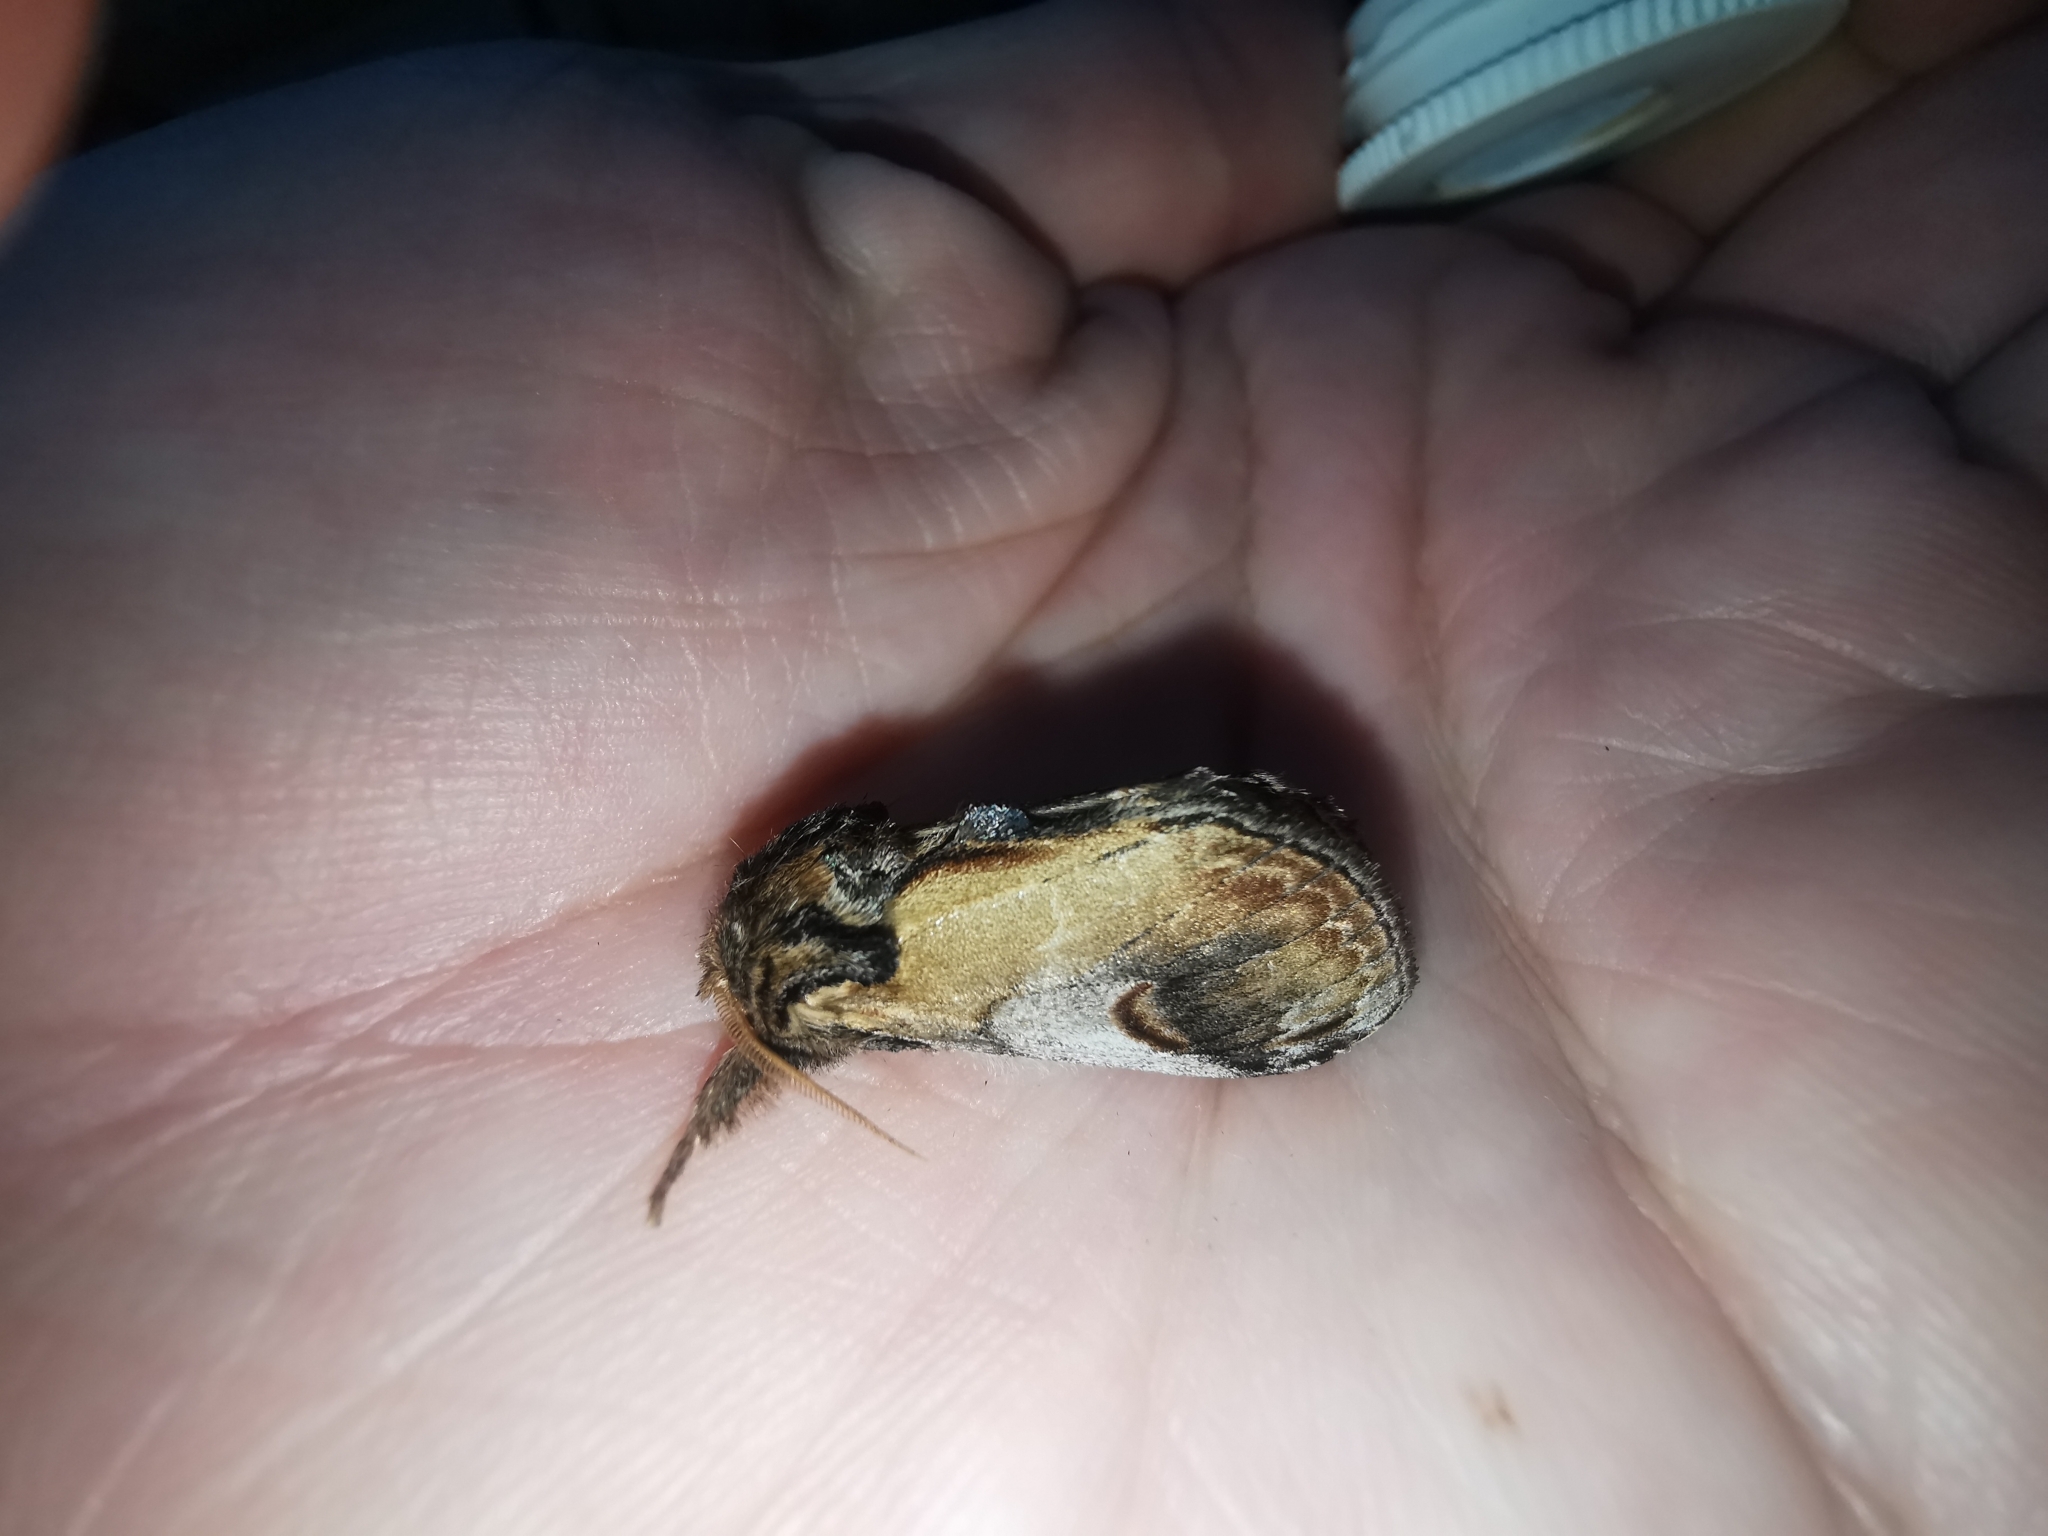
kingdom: Animalia
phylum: Arthropoda
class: Insecta
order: Lepidoptera
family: Notodontidae
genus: Notodonta
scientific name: Notodonta ziczac
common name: Pebble prominent
